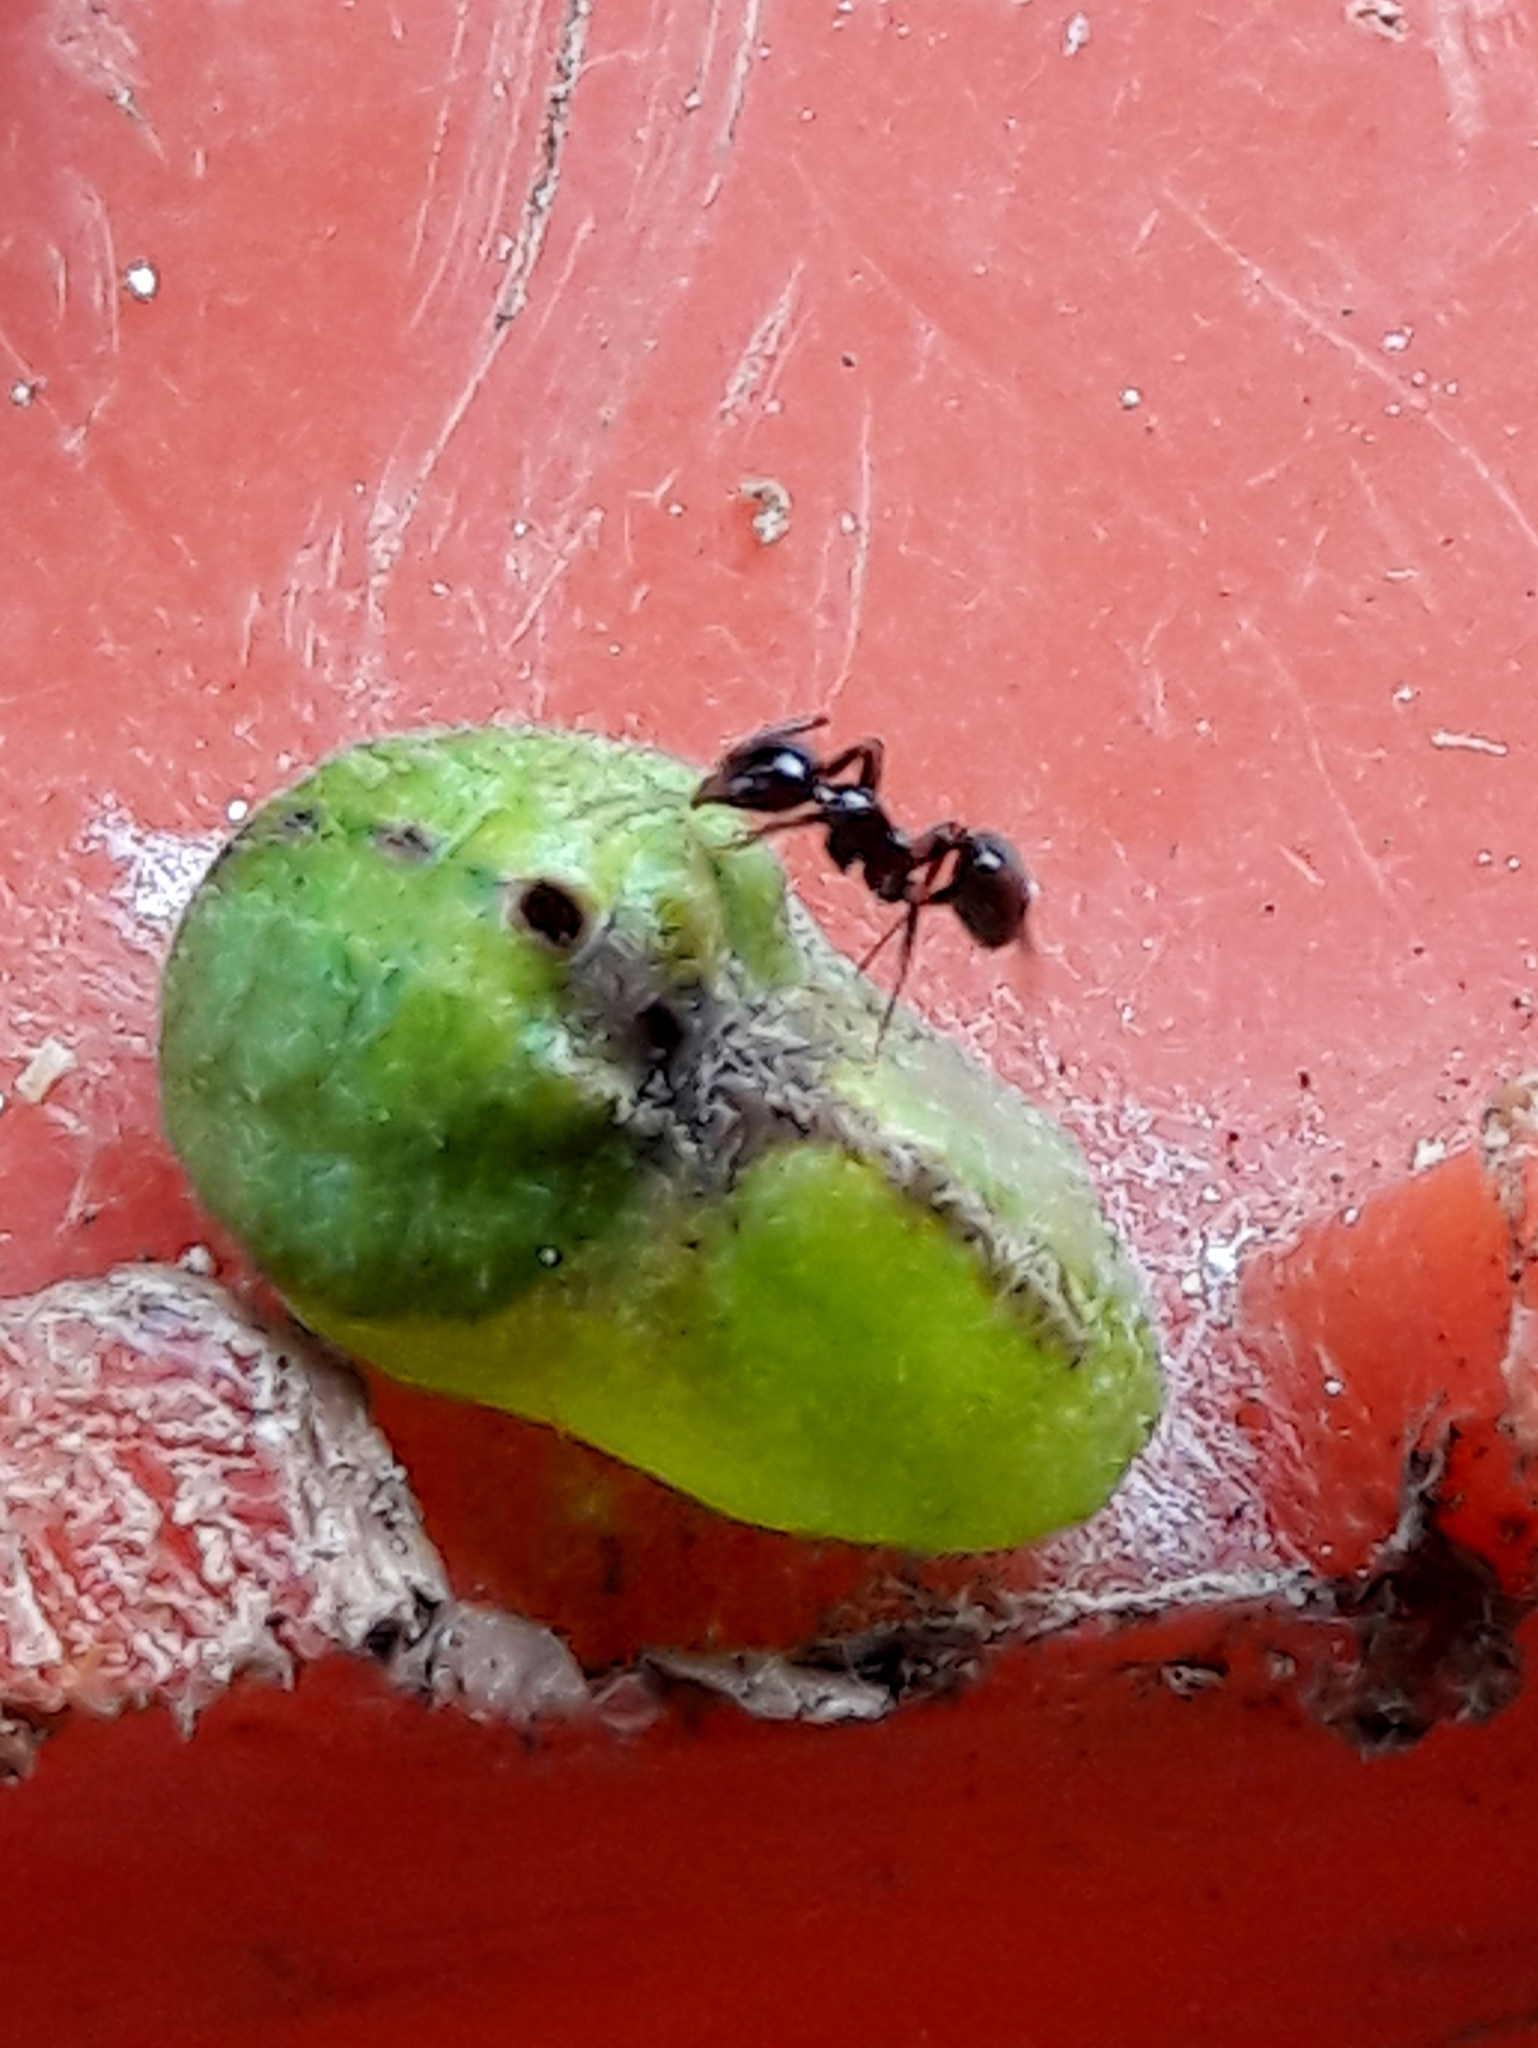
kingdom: Animalia
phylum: Arthropoda
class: Insecta
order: Lepidoptera
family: Lycaenidae
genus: Rekoa
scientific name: Rekoa meton
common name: Meton hairstreak
